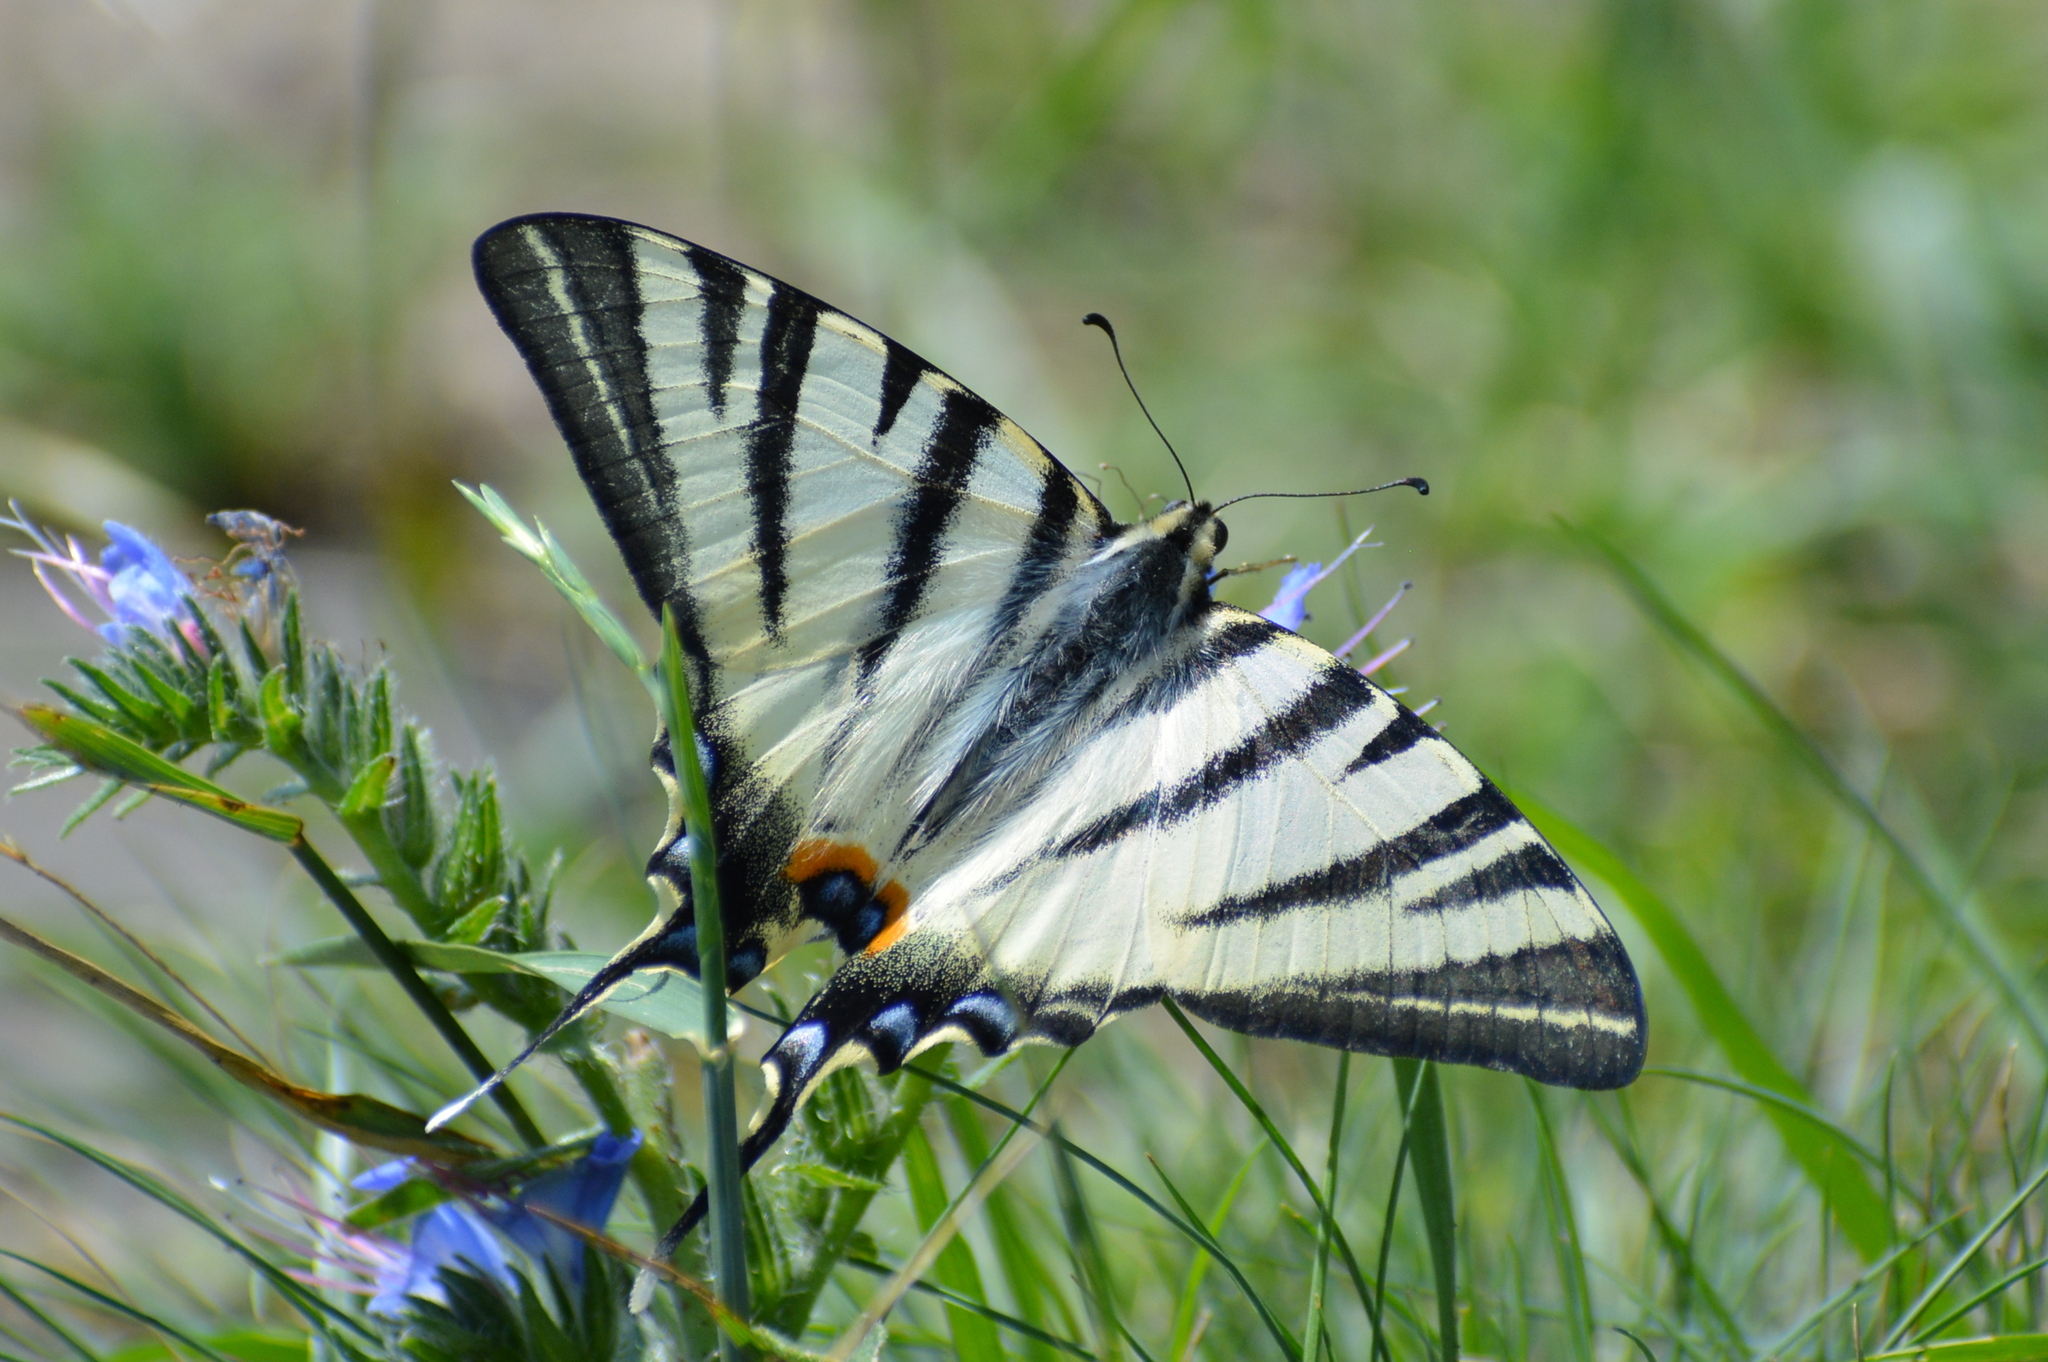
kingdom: Animalia
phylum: Arthropoda
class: Insecta
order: Lepidoptera
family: Papilionidae
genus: Iphiclides
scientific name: Iphiclides podalirius
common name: Scarce swallowtail
